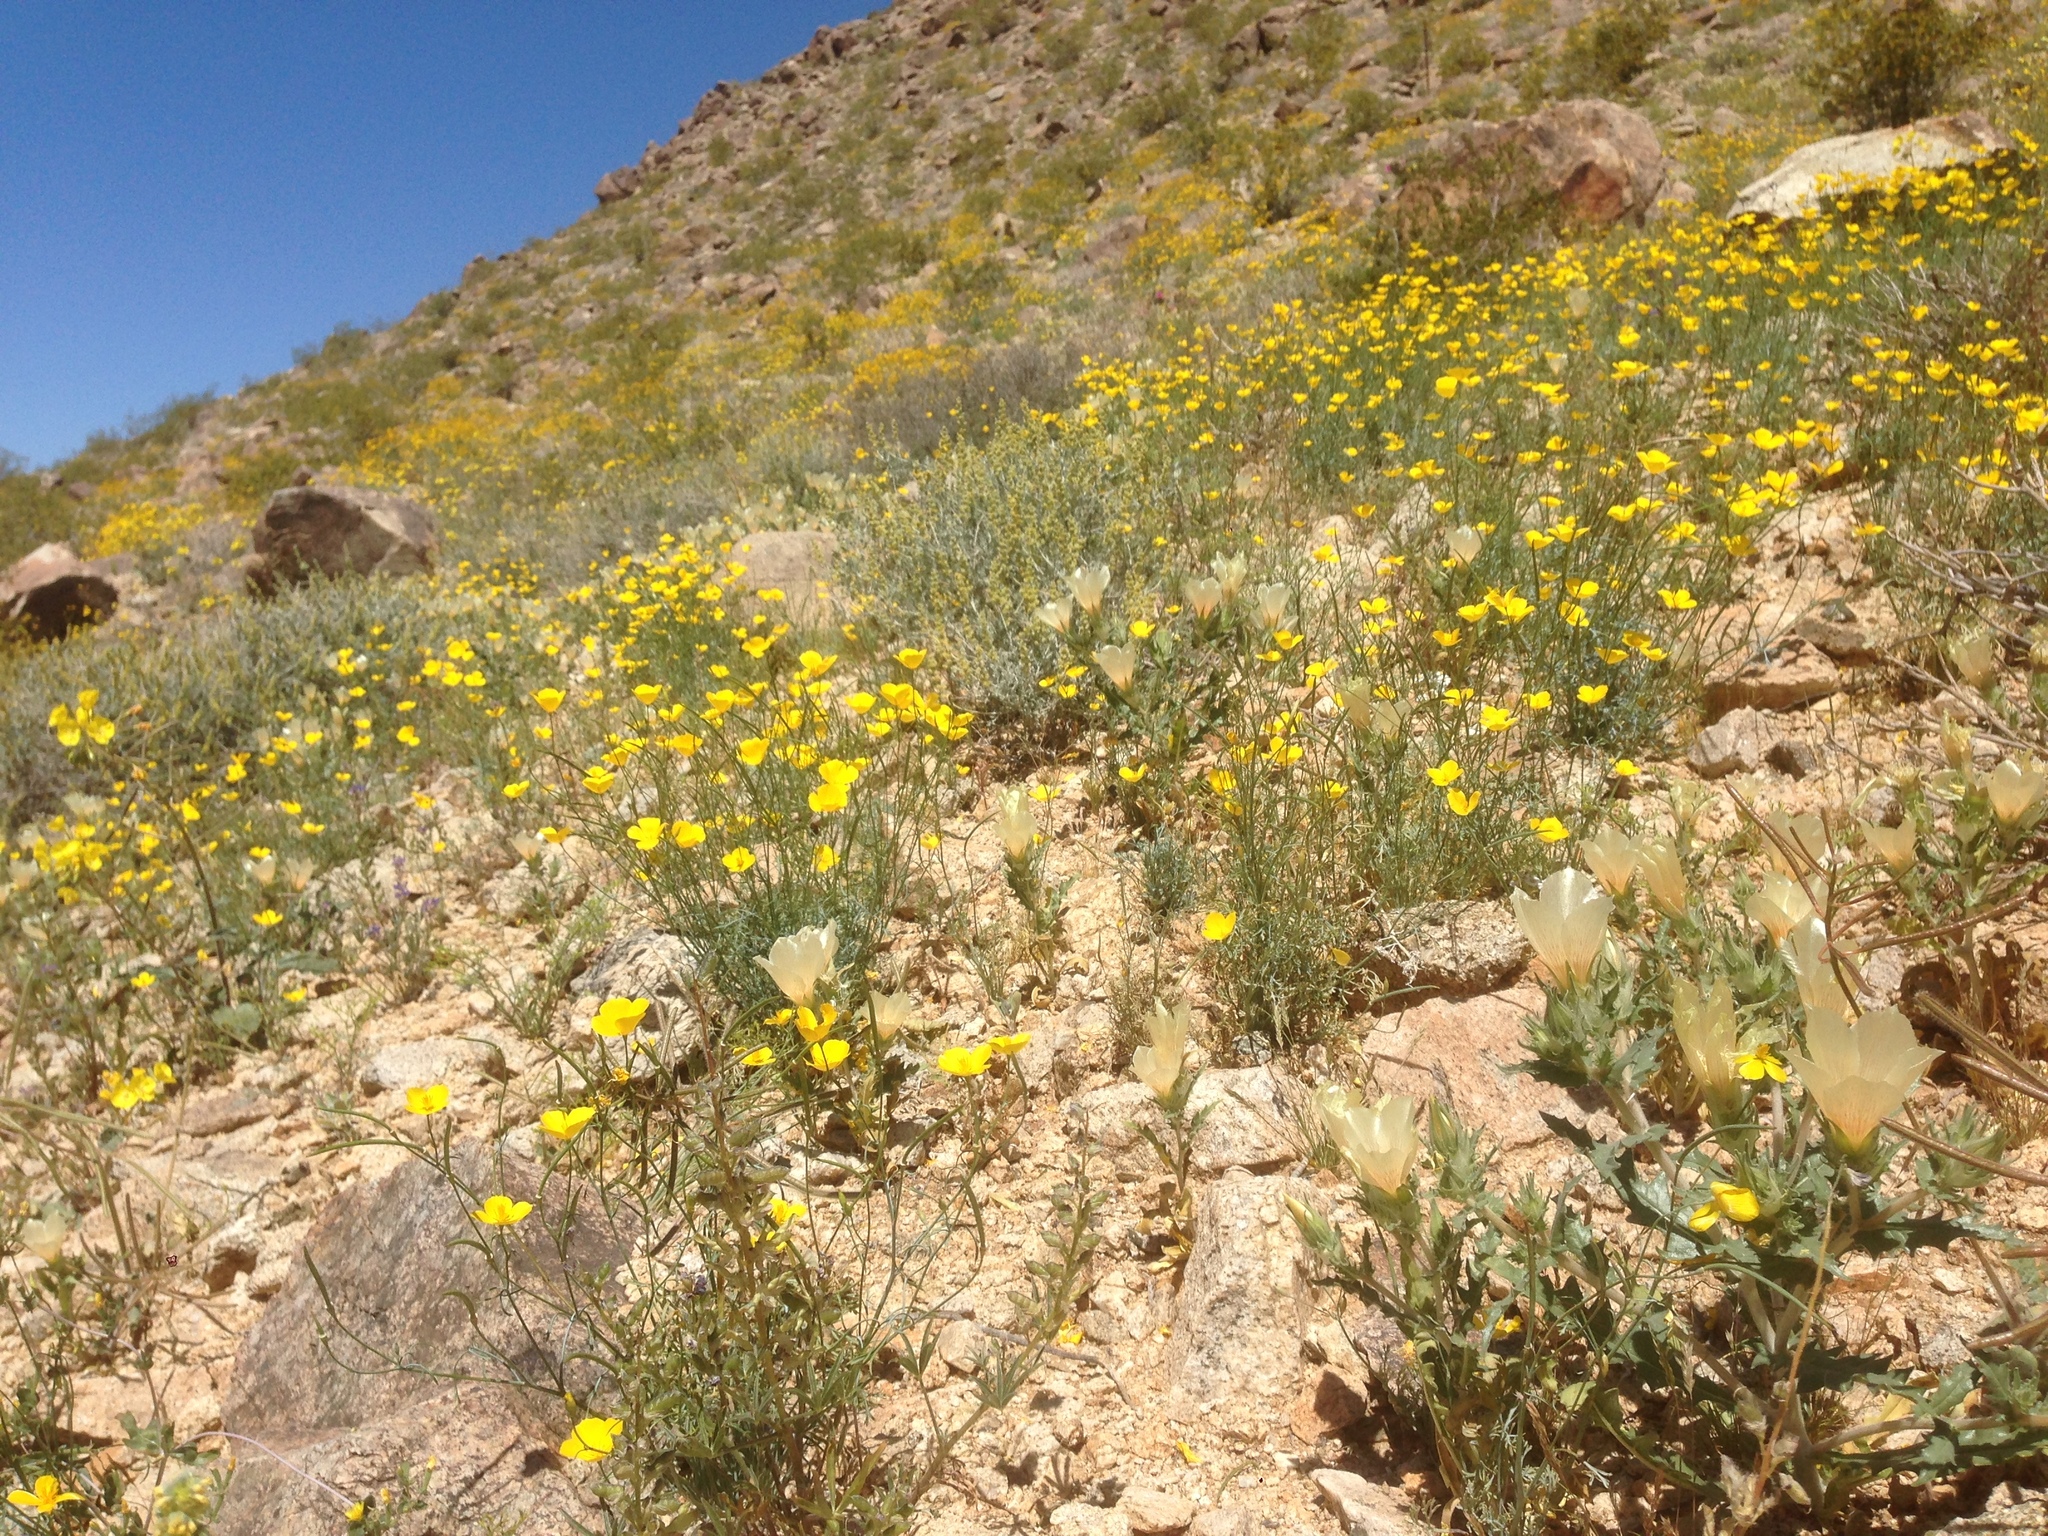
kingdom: Plantae
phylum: Tracheophyta
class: Magnoliopsida
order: Cornales
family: Loasaceae
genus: Mentzelia
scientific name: Mentzelia involucrata
